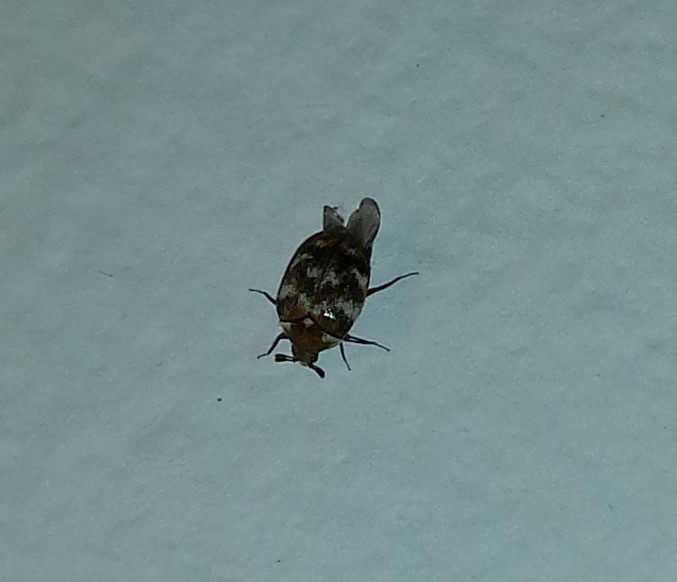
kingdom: Animalia
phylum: Arthropoda
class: Insecta
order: Coleoptera
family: Dermestidae
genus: Anthrenus
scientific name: Anthrenus verbasci
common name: Varied carpet beetle
